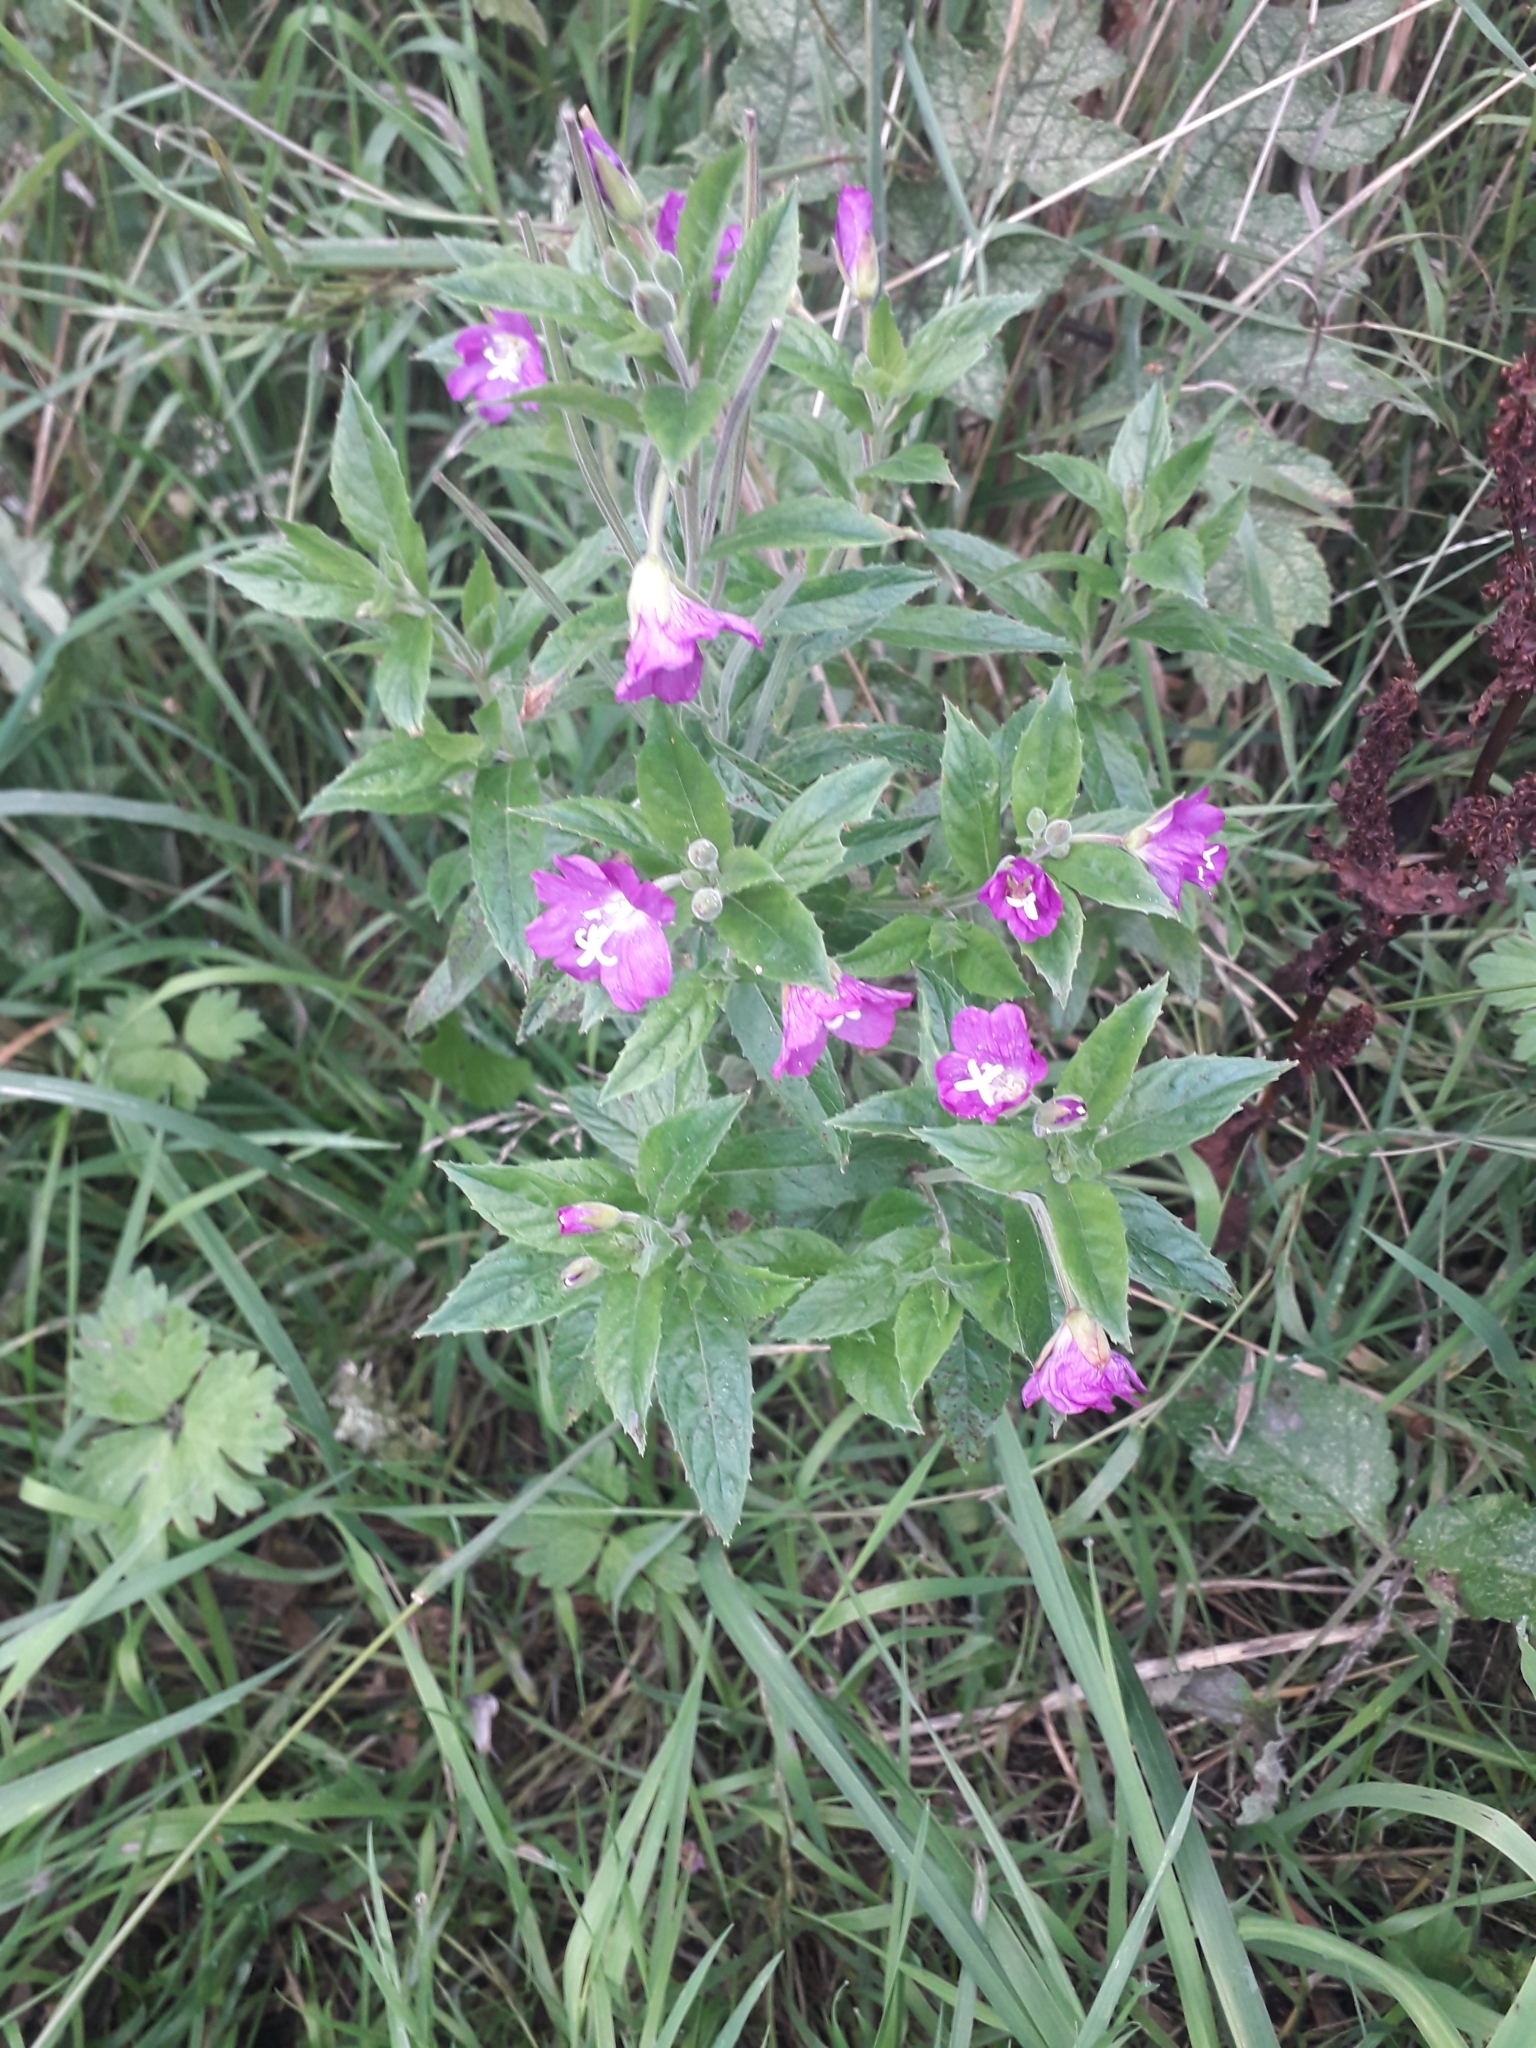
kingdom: Plantae
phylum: Tracheophyta
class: Magnoliopsida
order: Myrtales
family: Onagraceae
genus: Epilobium
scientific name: Epilobium hirsutum
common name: Great willowherb
